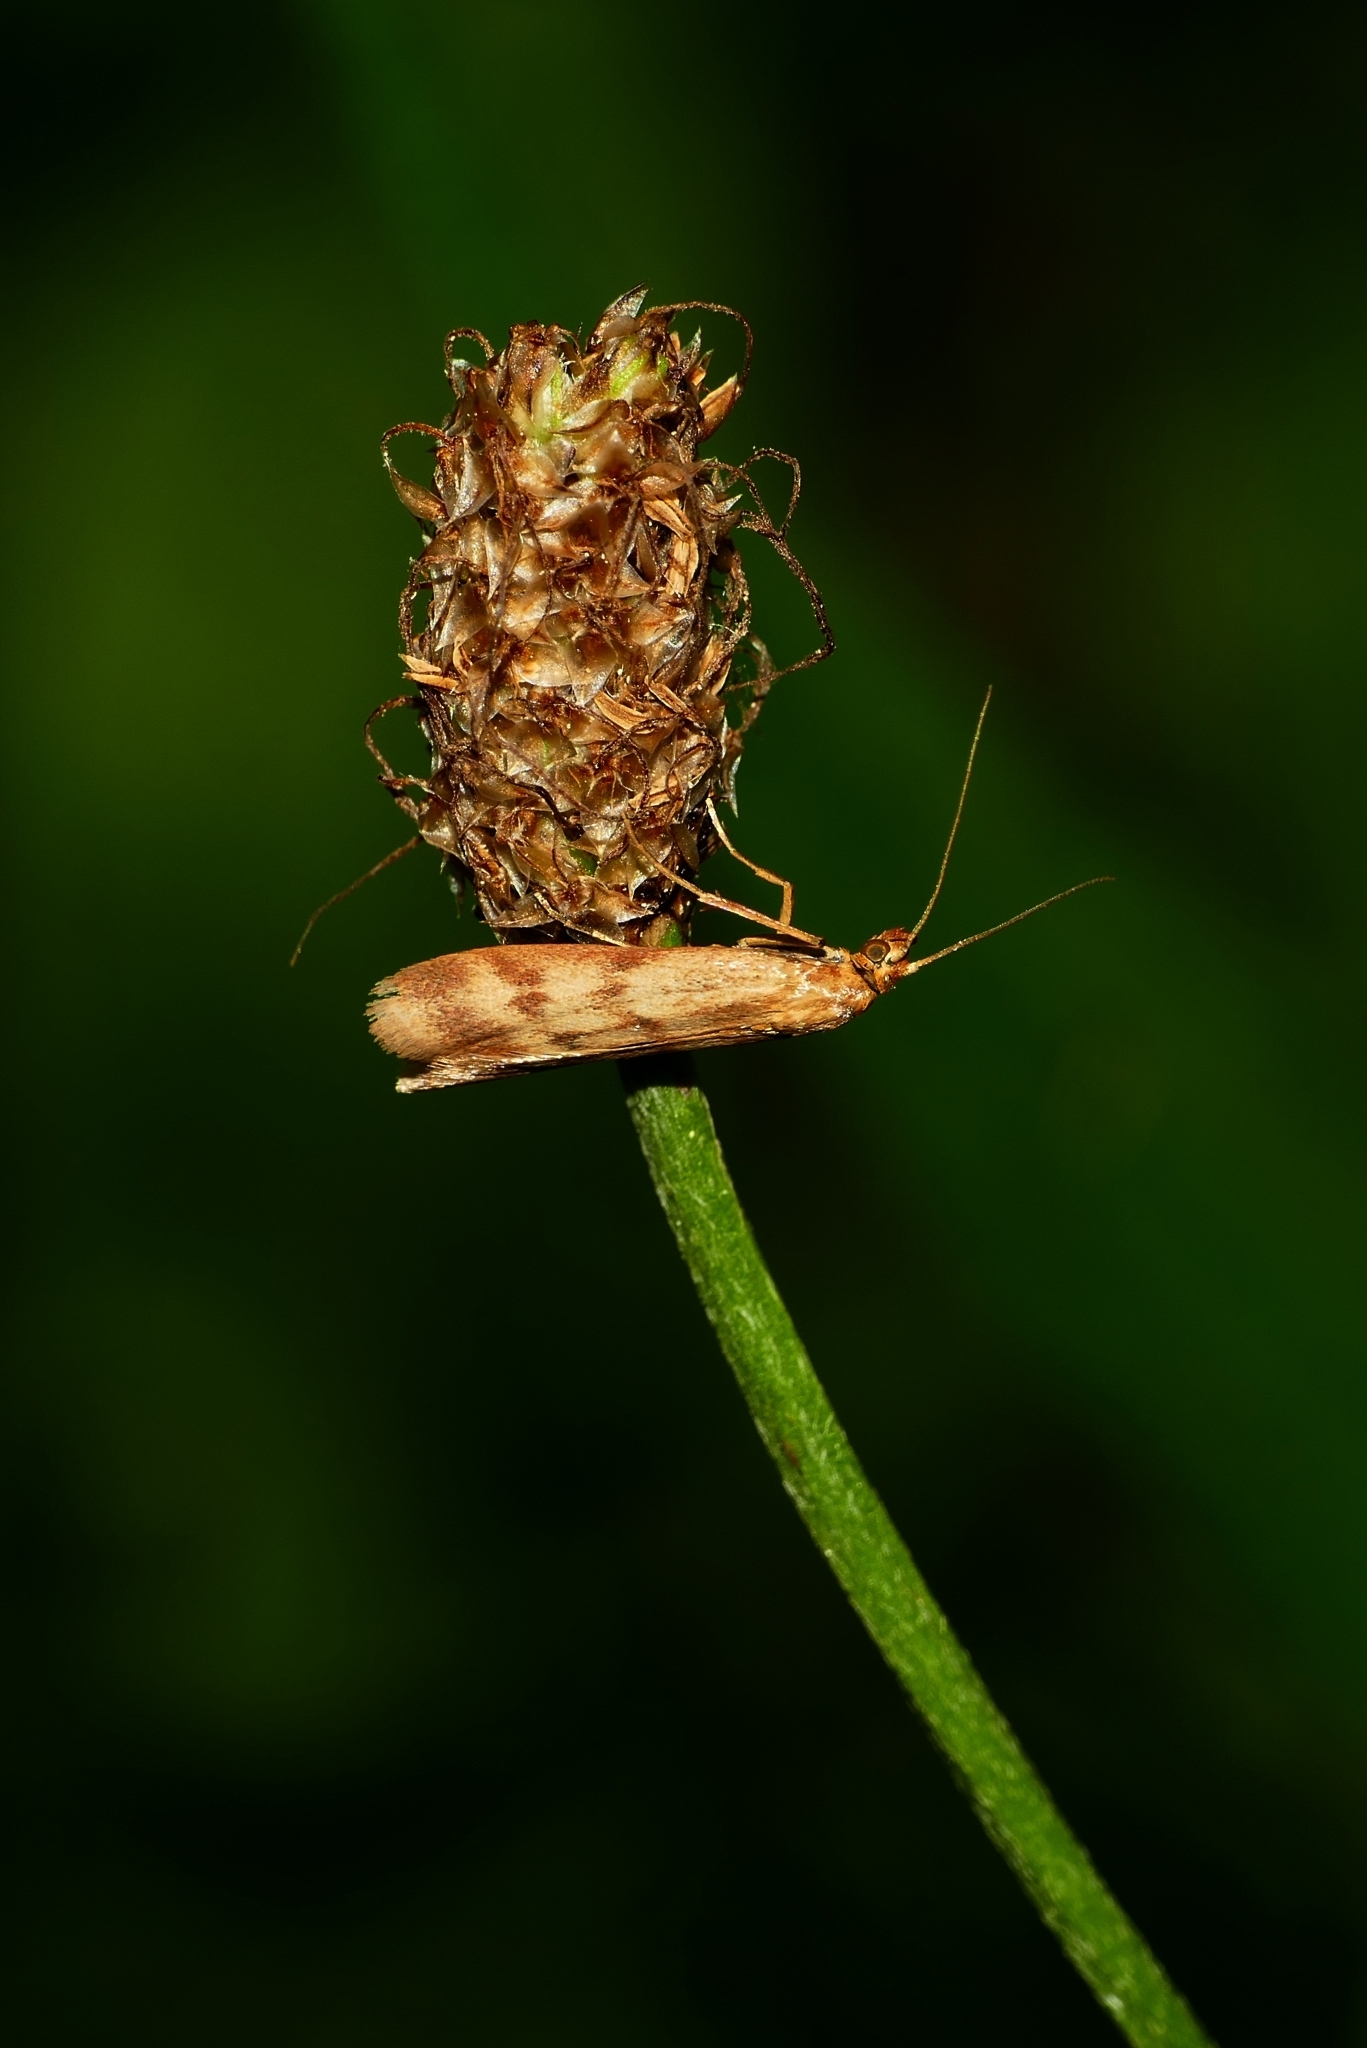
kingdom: Animalia
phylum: Arthropoda
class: Insecta
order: Lepidoptera
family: Pyralidae
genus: Homoeosoma
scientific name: Homoeosoma sinuella
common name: Twin-barred knot-horn
